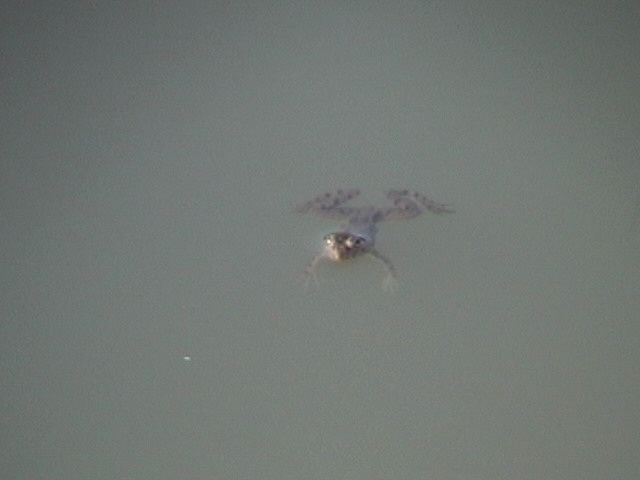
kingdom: Animalia
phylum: Chordata
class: Amphibia
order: Anura
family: Dicroglossidae
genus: Euphlyctis
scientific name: Euphlyctis cyanophlyctis
